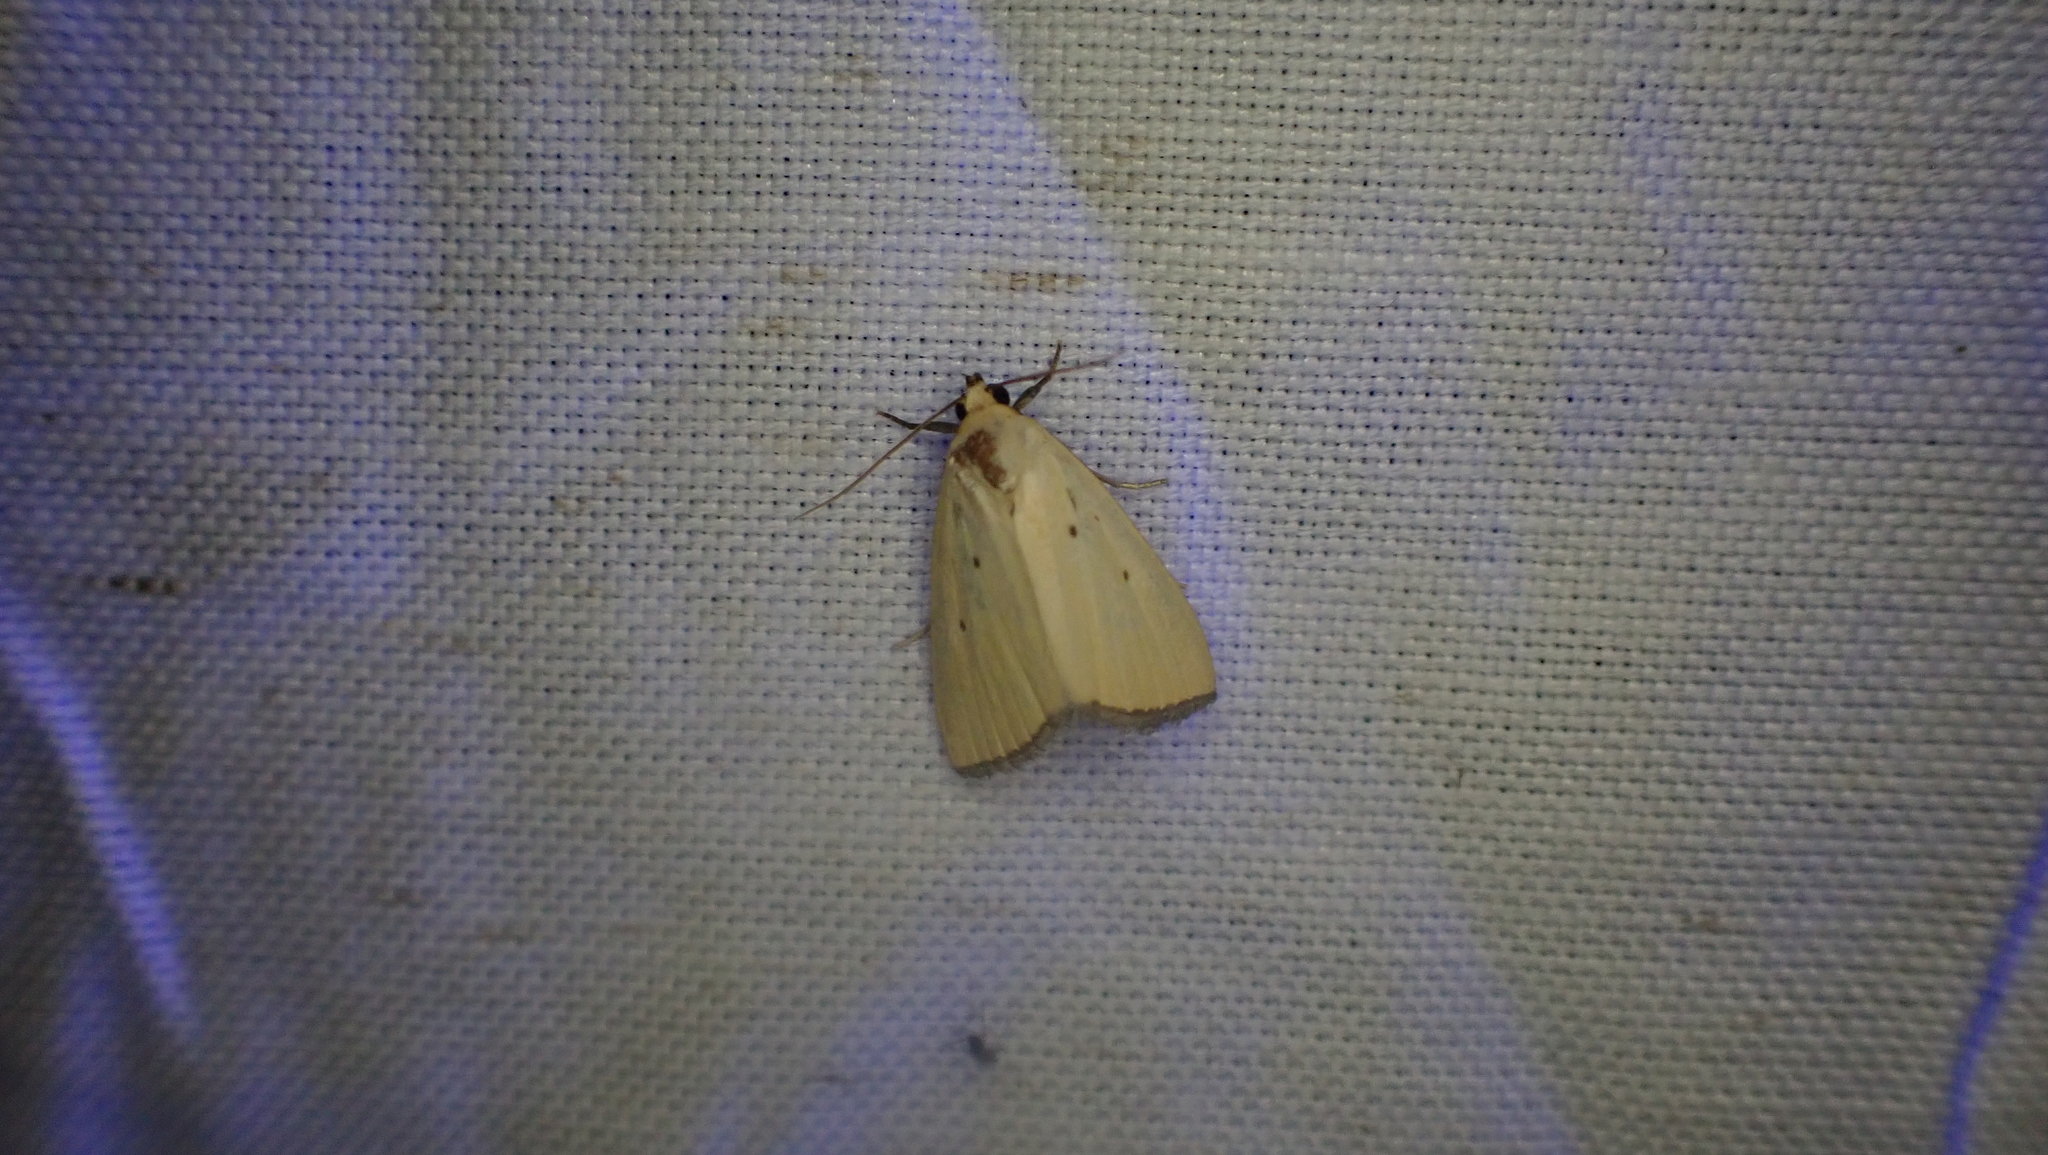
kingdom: Animalia
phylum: Arthropoda
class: Insecta
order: Lepidoptera
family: Noctuidae
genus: Marimatha
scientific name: Marimatha nigrofimbria
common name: Black-bordered lemon moth
